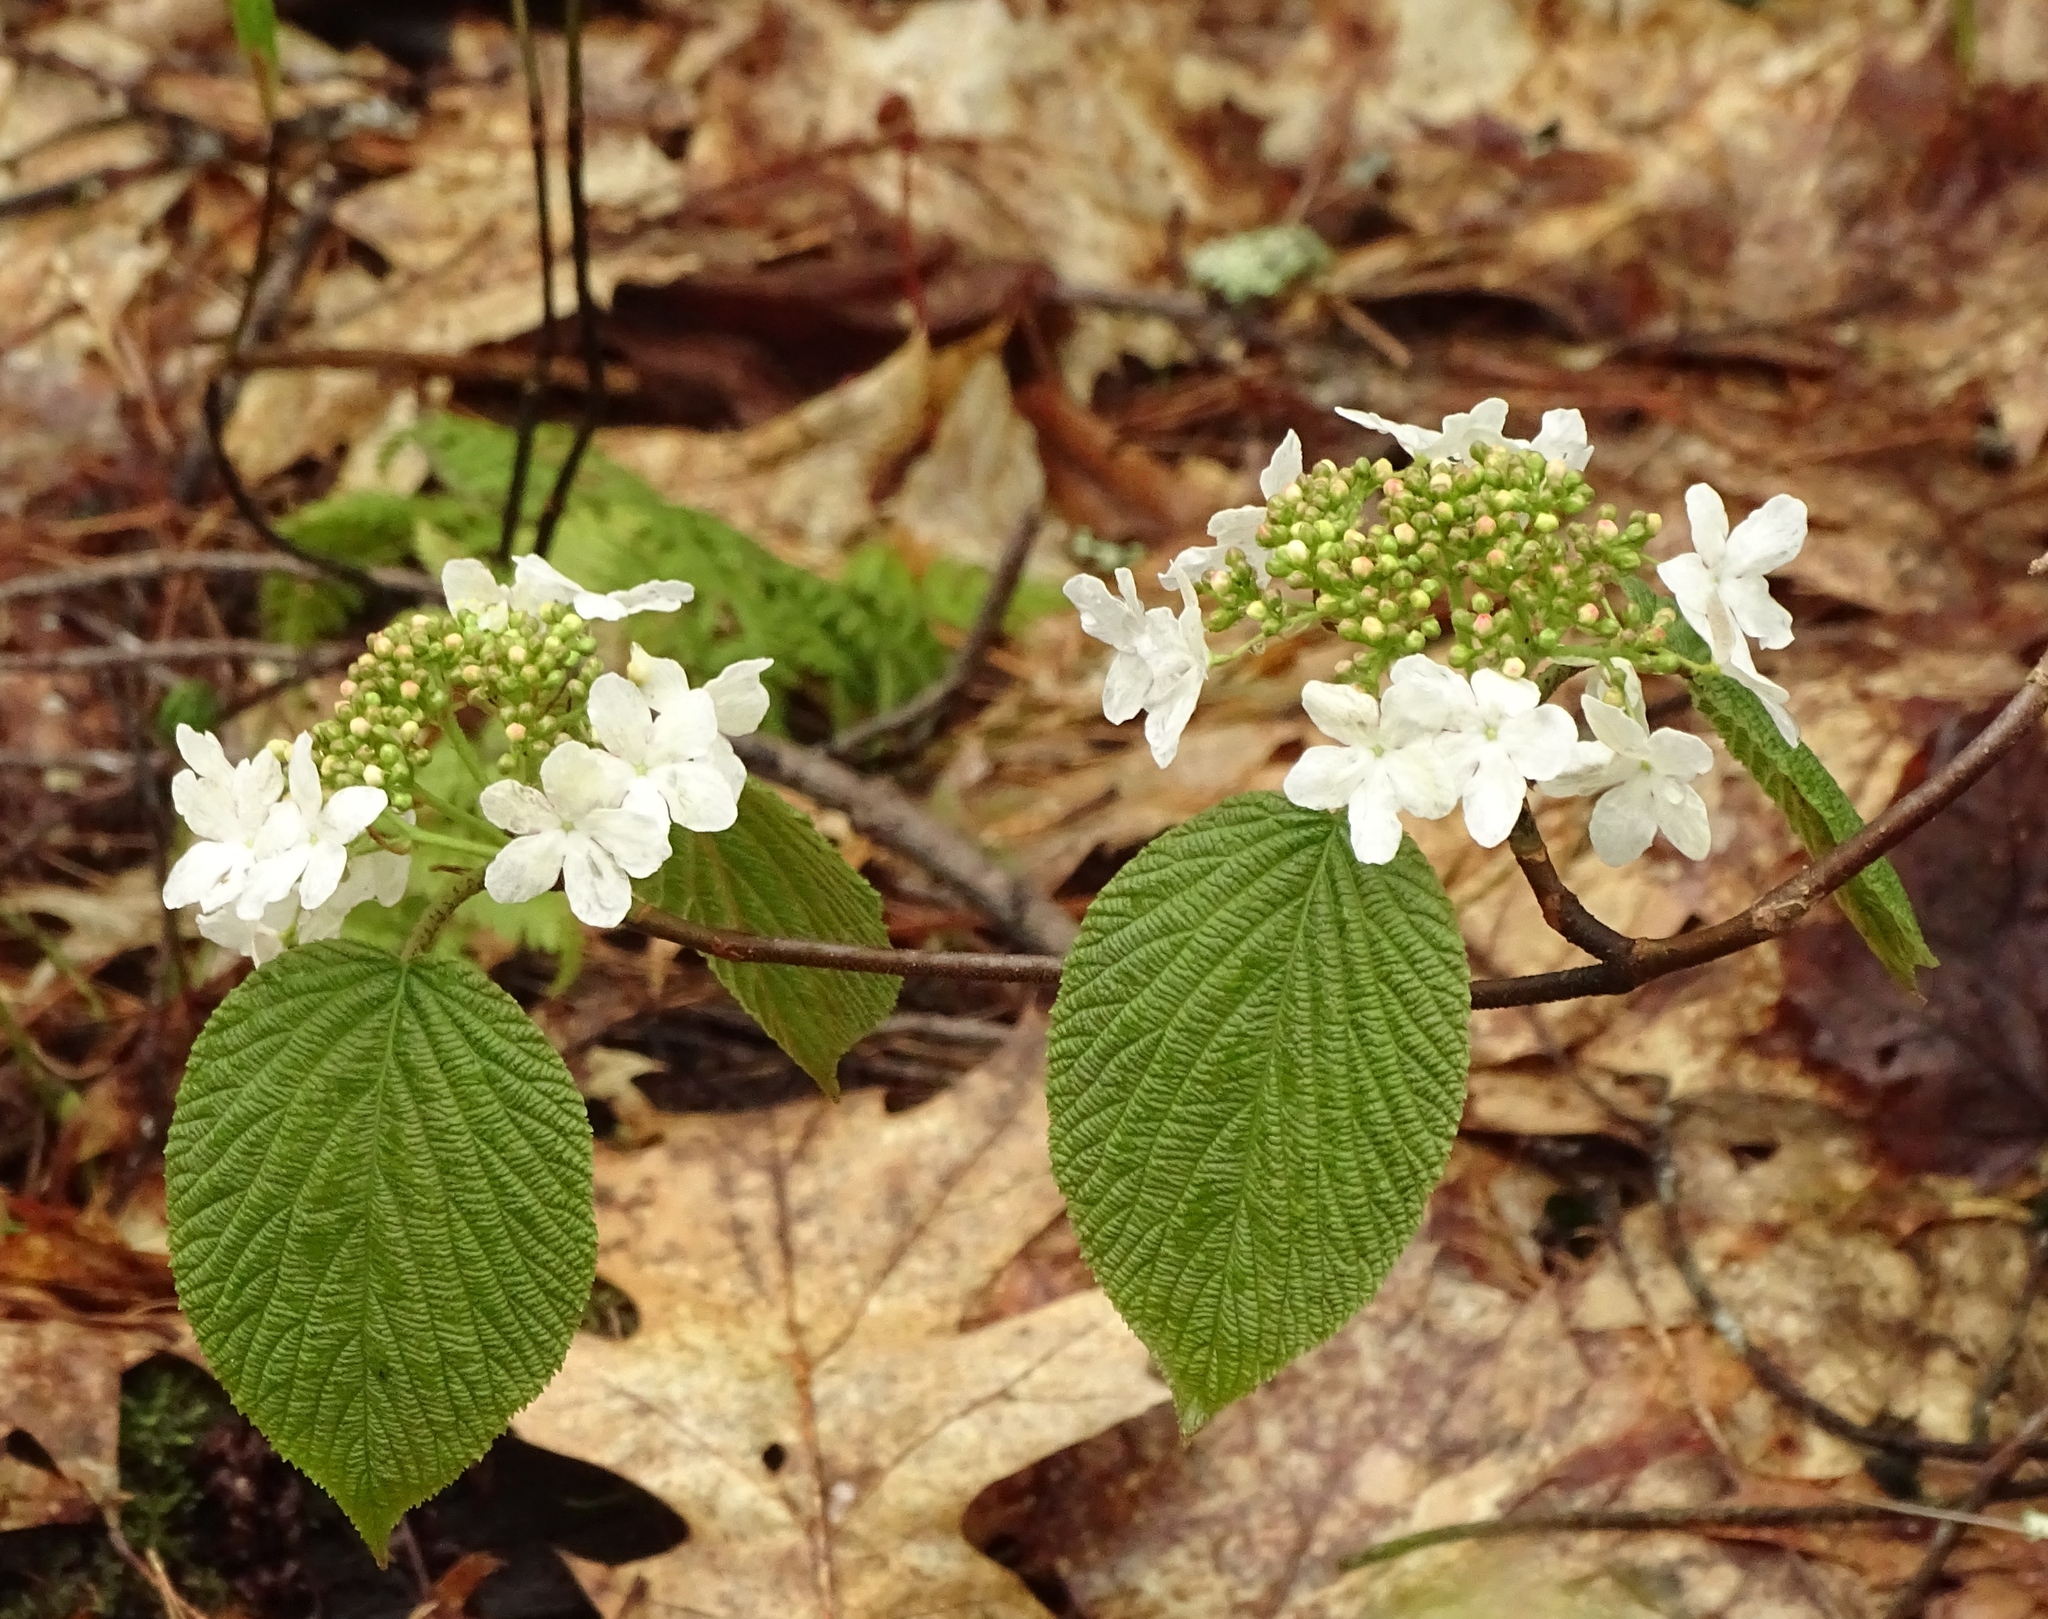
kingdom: Plantae
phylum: Tracheophyta
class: Magnoliopsida
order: Dipsacales
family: Viburnaceae
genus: Viburnum
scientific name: Viburnum lantanoides
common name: Hobblebush
